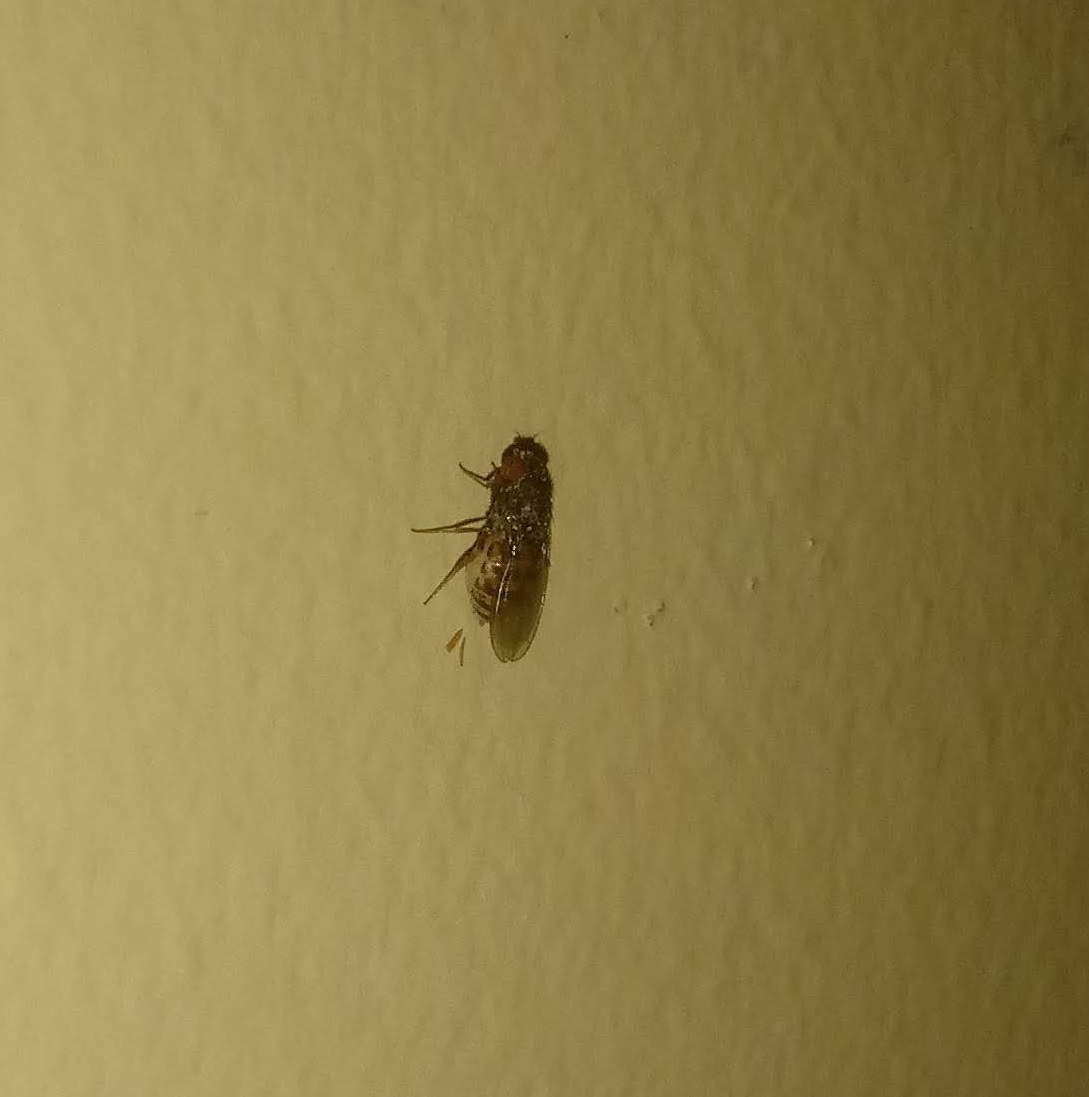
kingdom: Animalia
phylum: Arthropoda
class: Insecta
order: Diptera
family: Drosophilidae
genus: Drosophila
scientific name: Drosophila repleta
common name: Pomace fly
